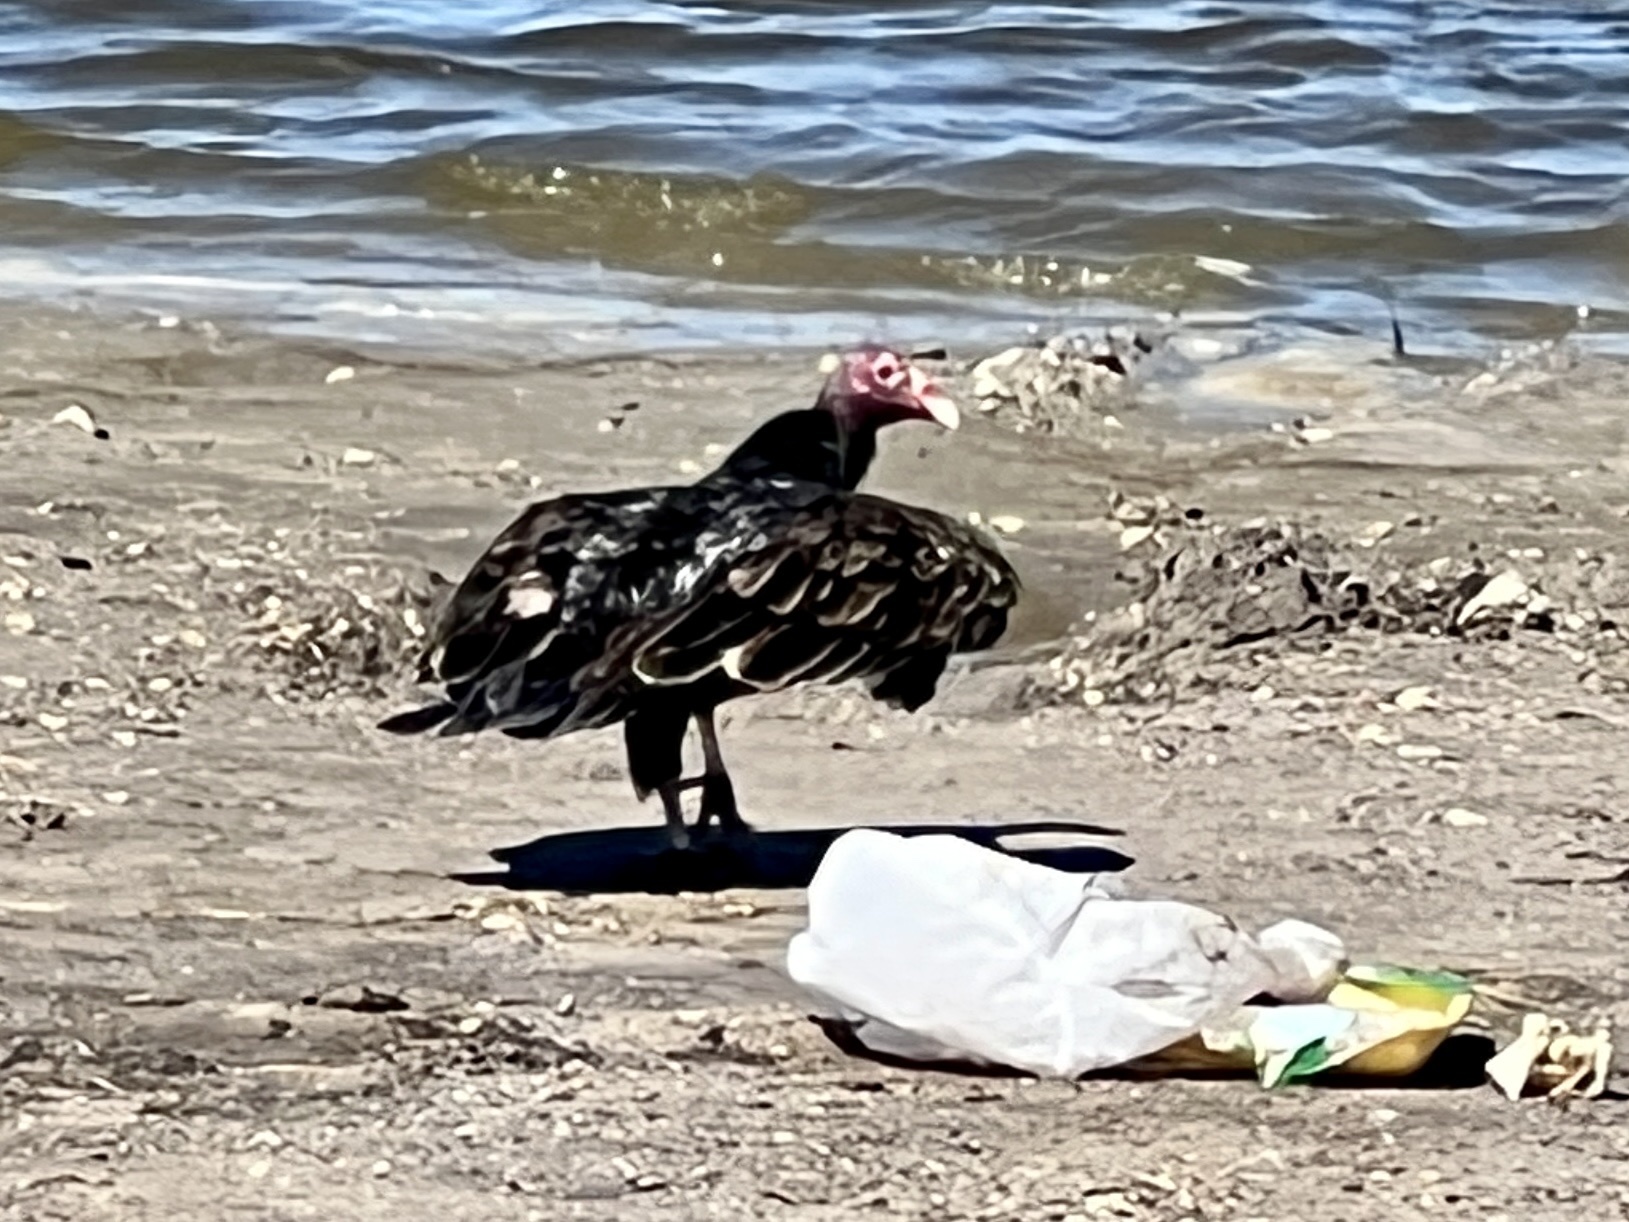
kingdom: Animalia
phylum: Chordata
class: Aves
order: Accipitriformes
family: Cathartidae
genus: Cathartes
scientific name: Cathartes aura
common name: Turkey vulture
